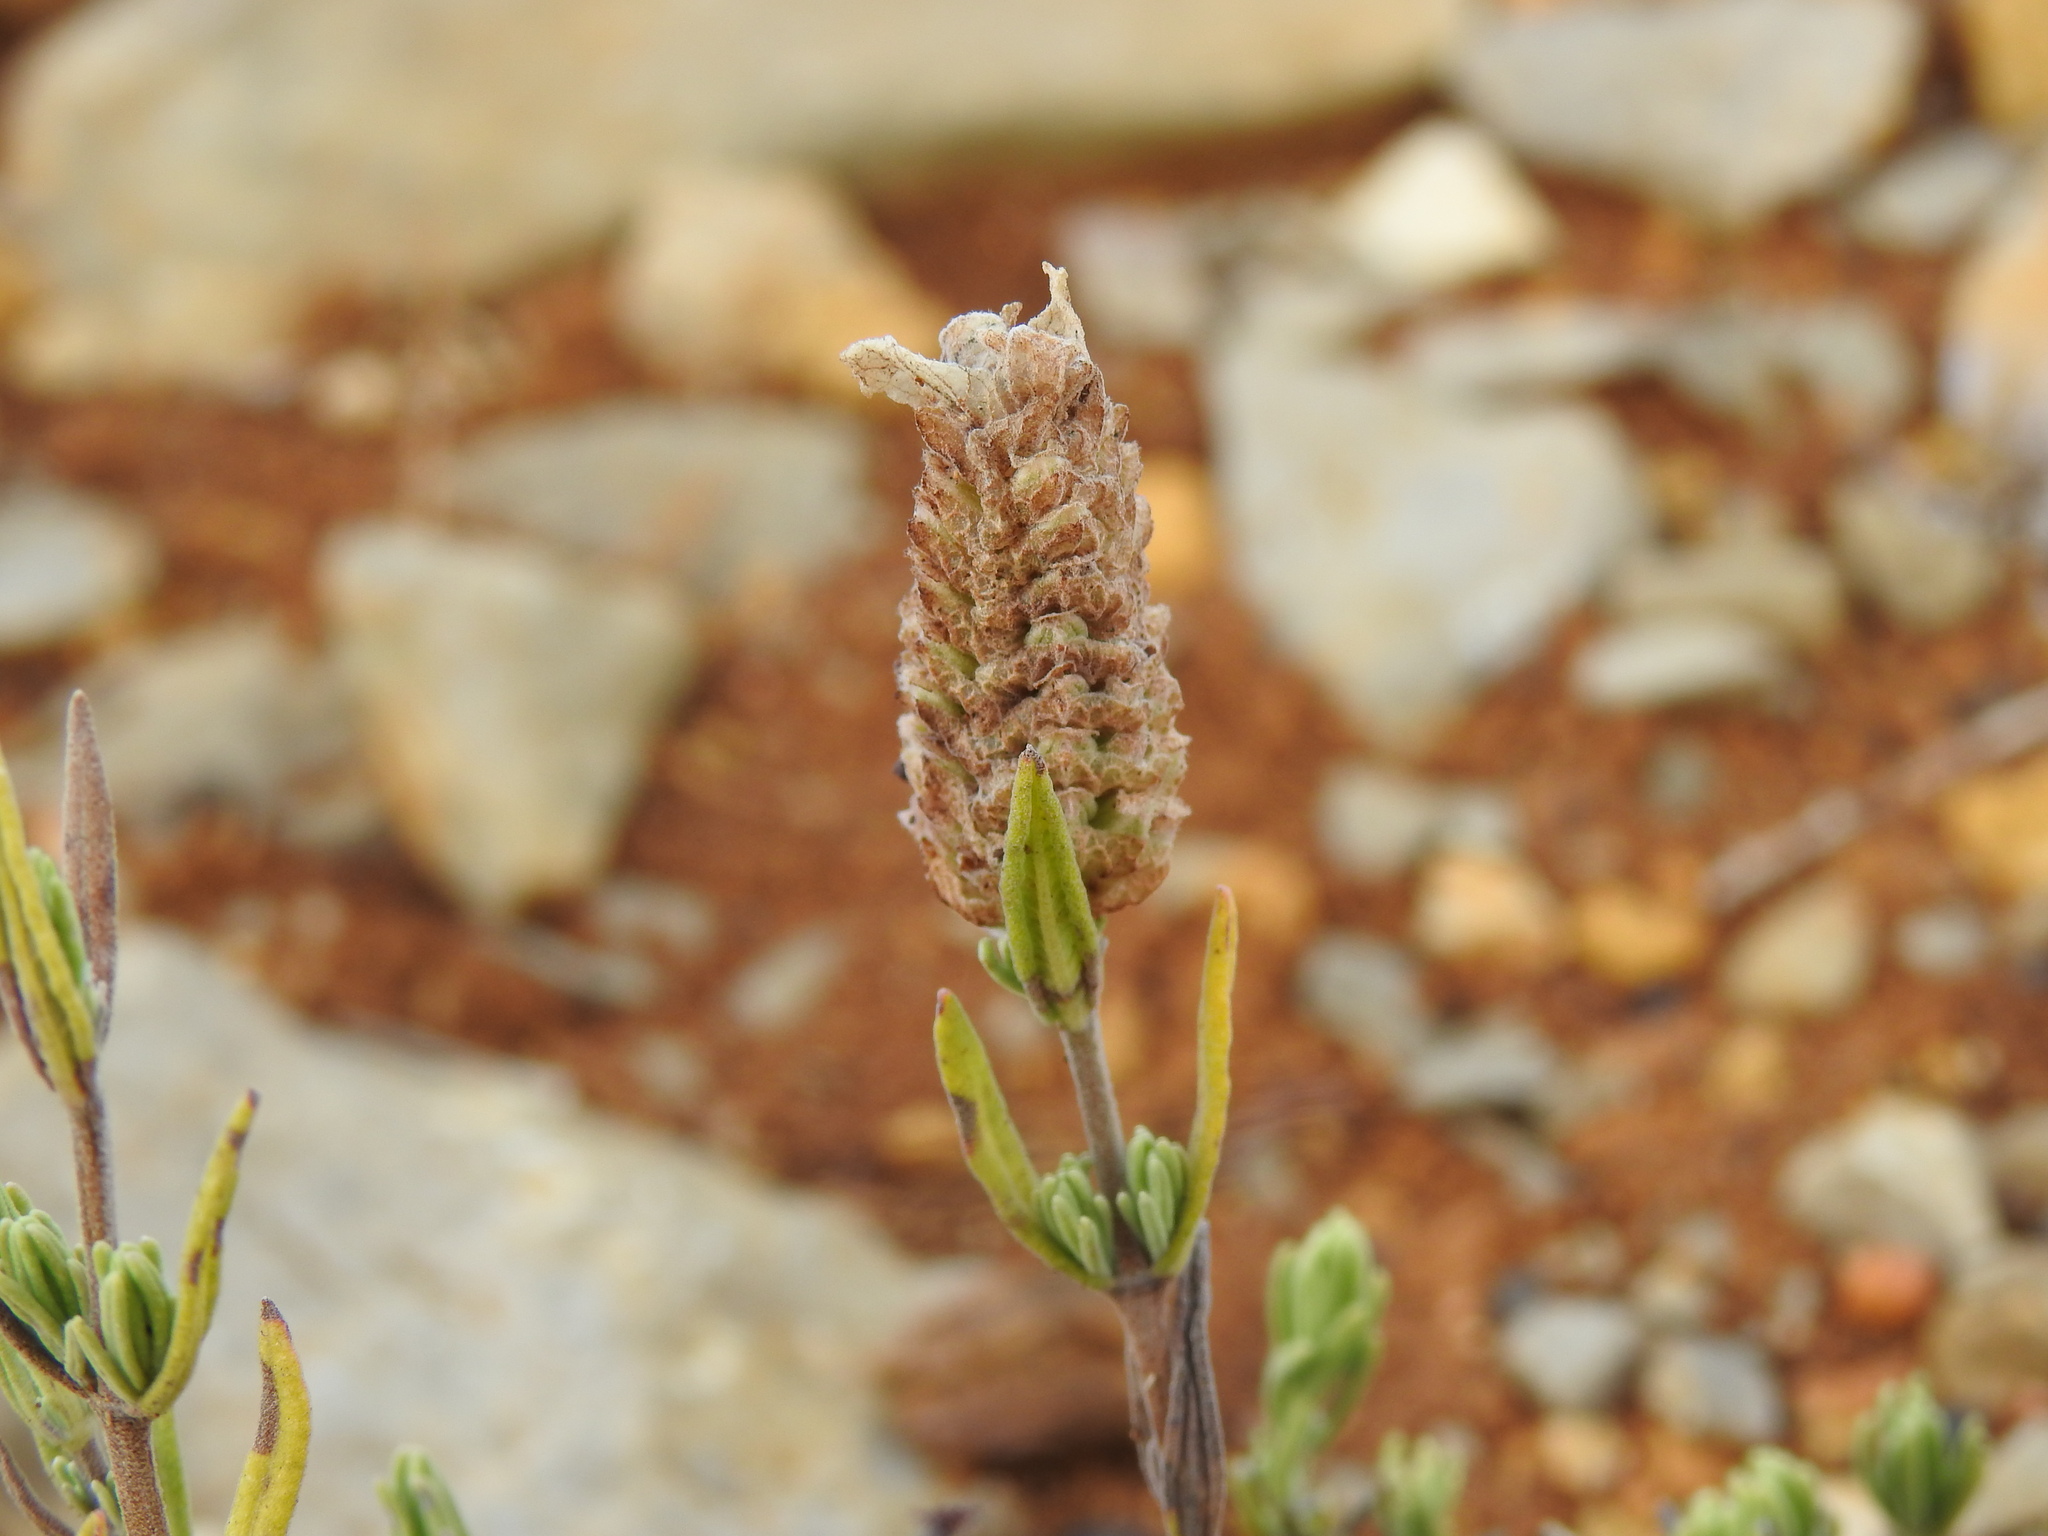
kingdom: Plantae
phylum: Tracheophyta
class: Magnoliopsida
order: Lamiales
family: Lamiaceae
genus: Lavandula
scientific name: Lavandula stoechas
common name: French lavender
